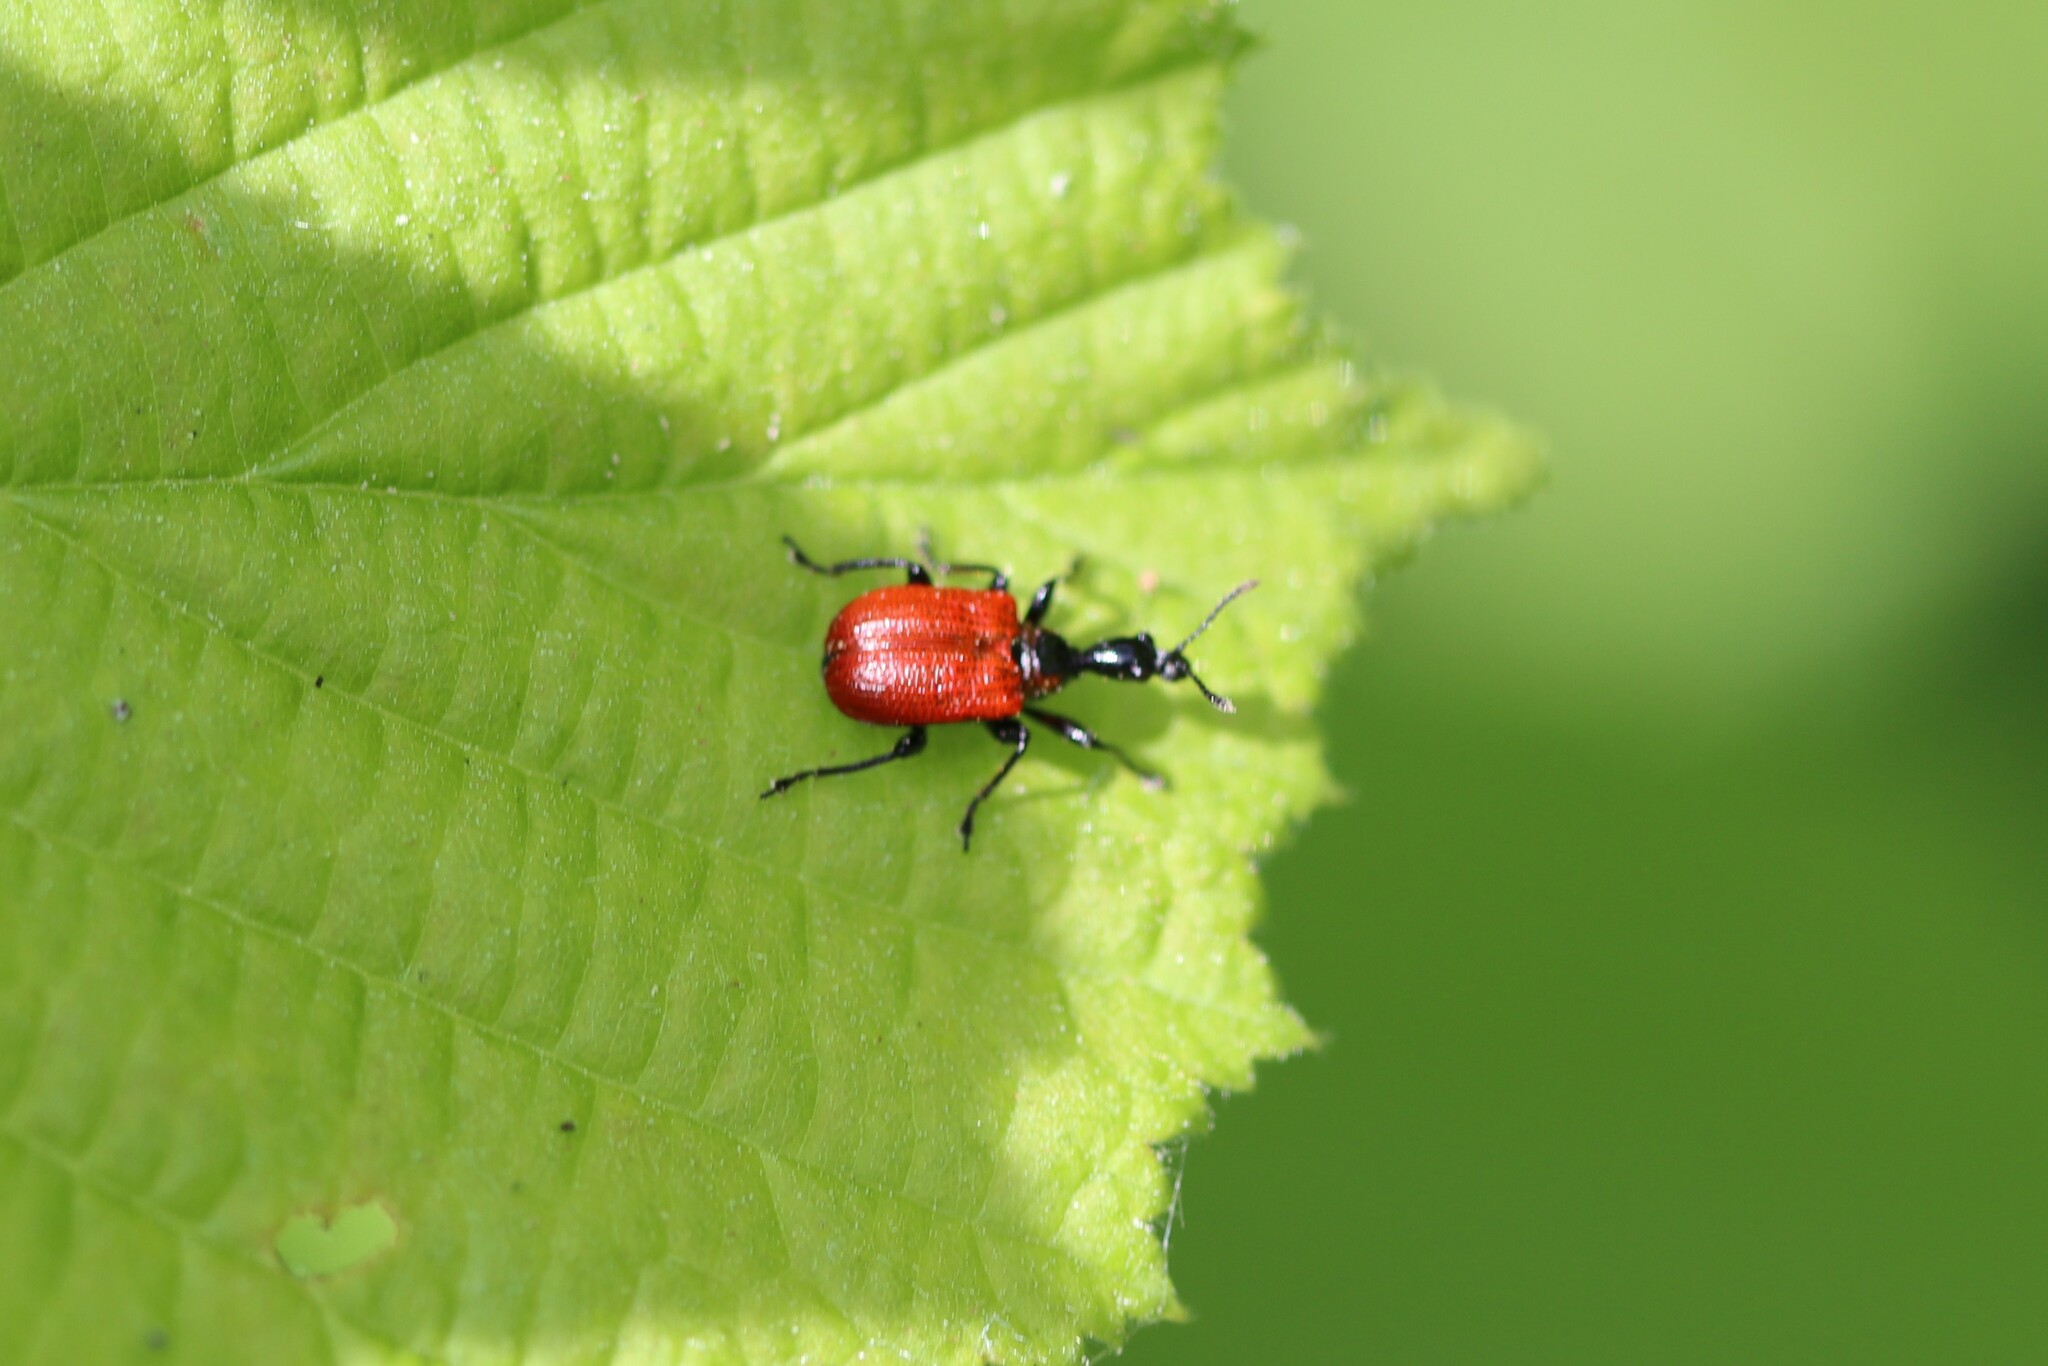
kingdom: Animalia
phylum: Arthropoda
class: Insecta
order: Coleoptera
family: Attelabidae
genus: Apoderus
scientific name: Apoderus coryli
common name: Hazel leaf roller
